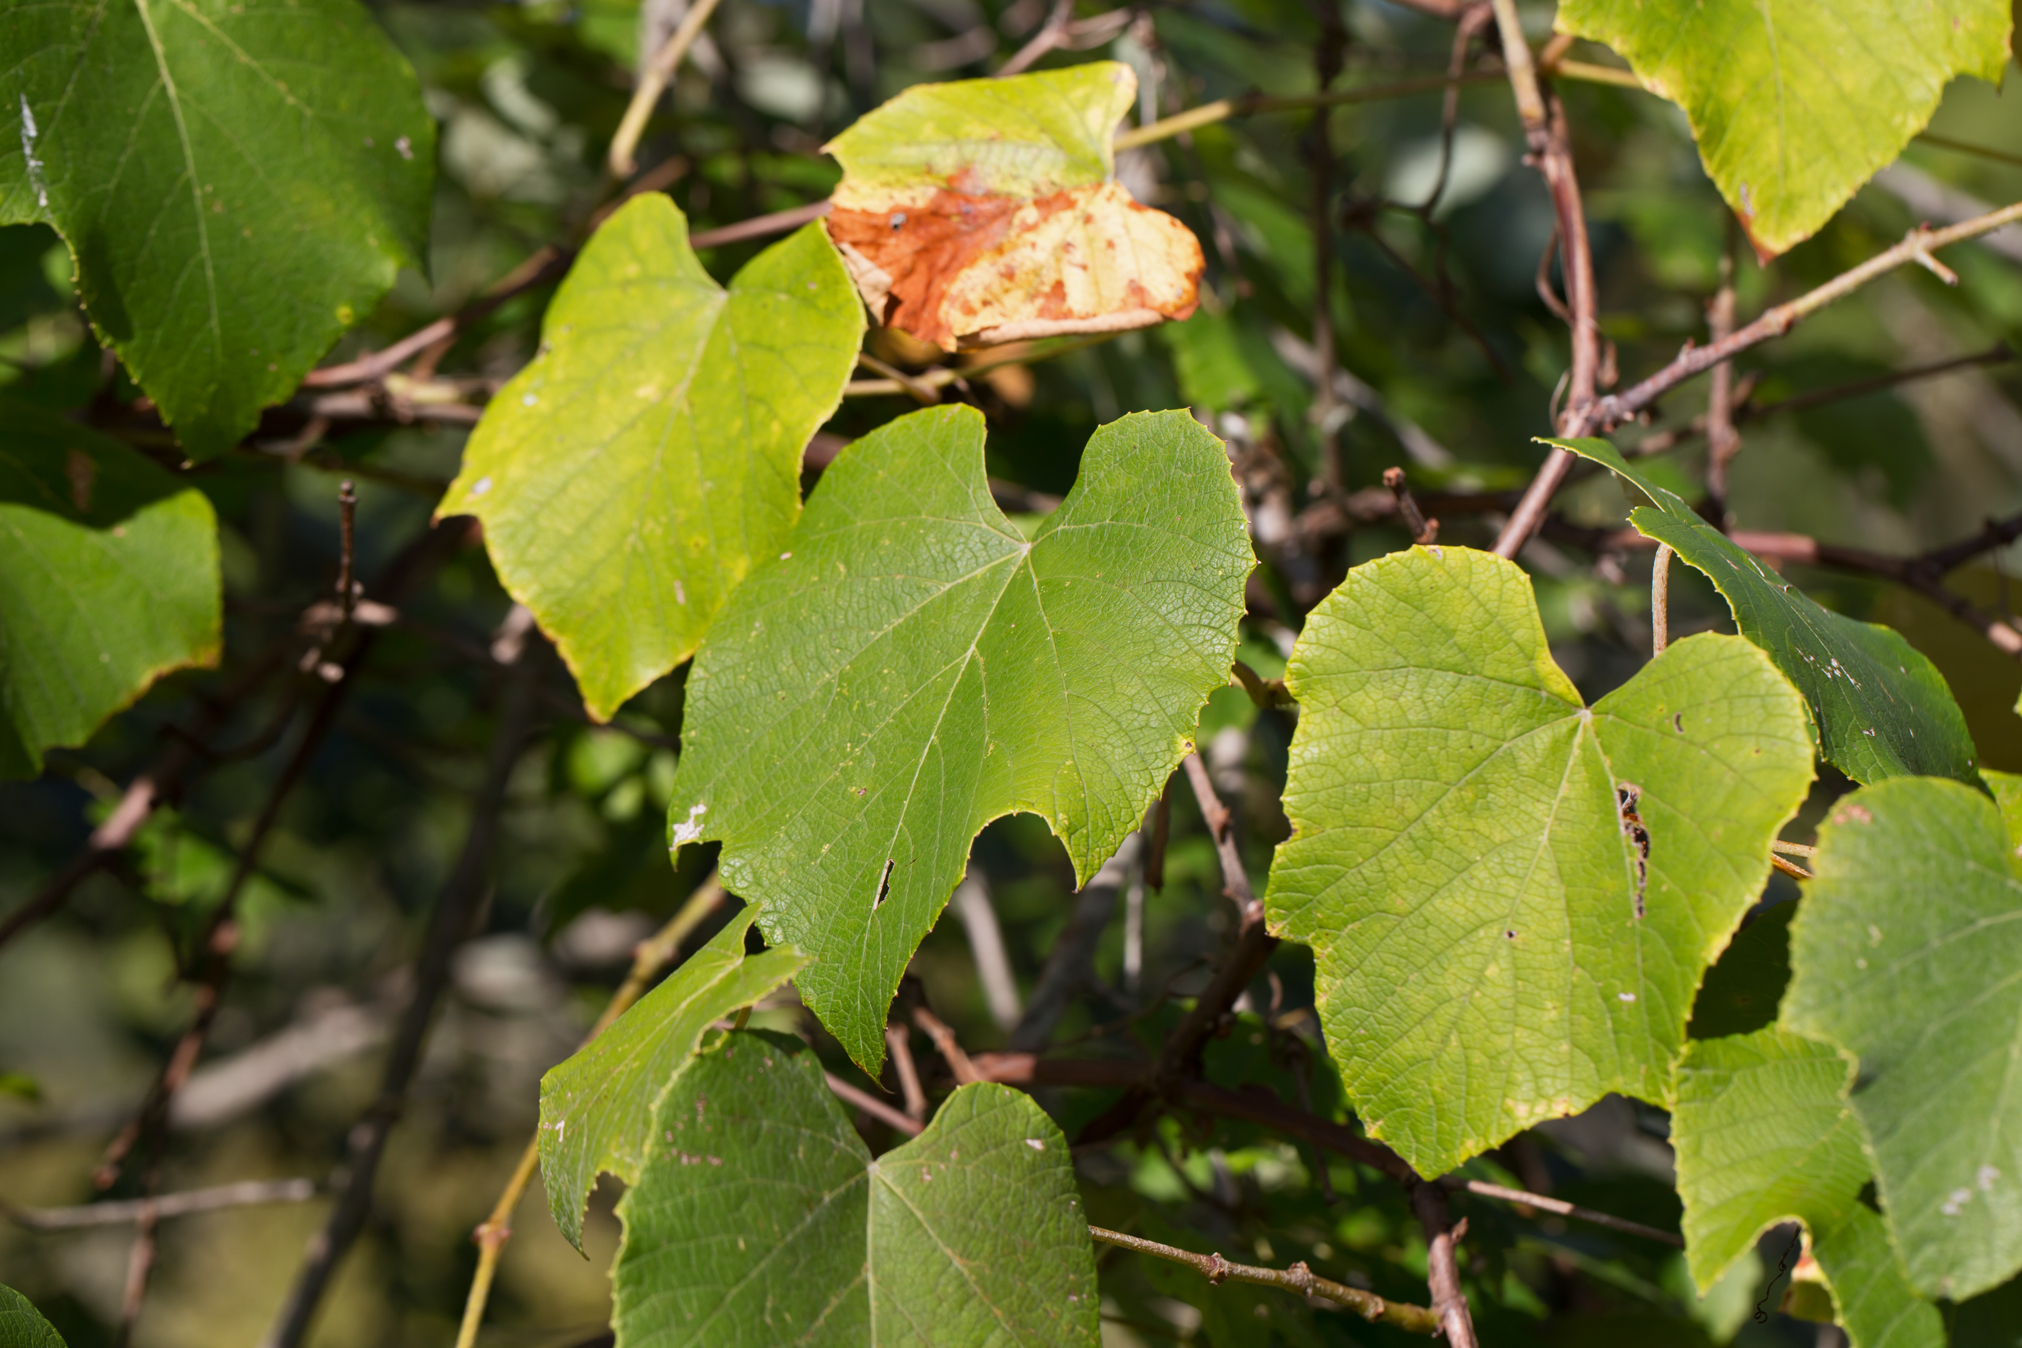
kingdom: Plantae
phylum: Tracheophyta
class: Magnoliopsida
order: Vitales
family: Vitaceae
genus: Vitis
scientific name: Vitis labrusca
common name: Concord grape
